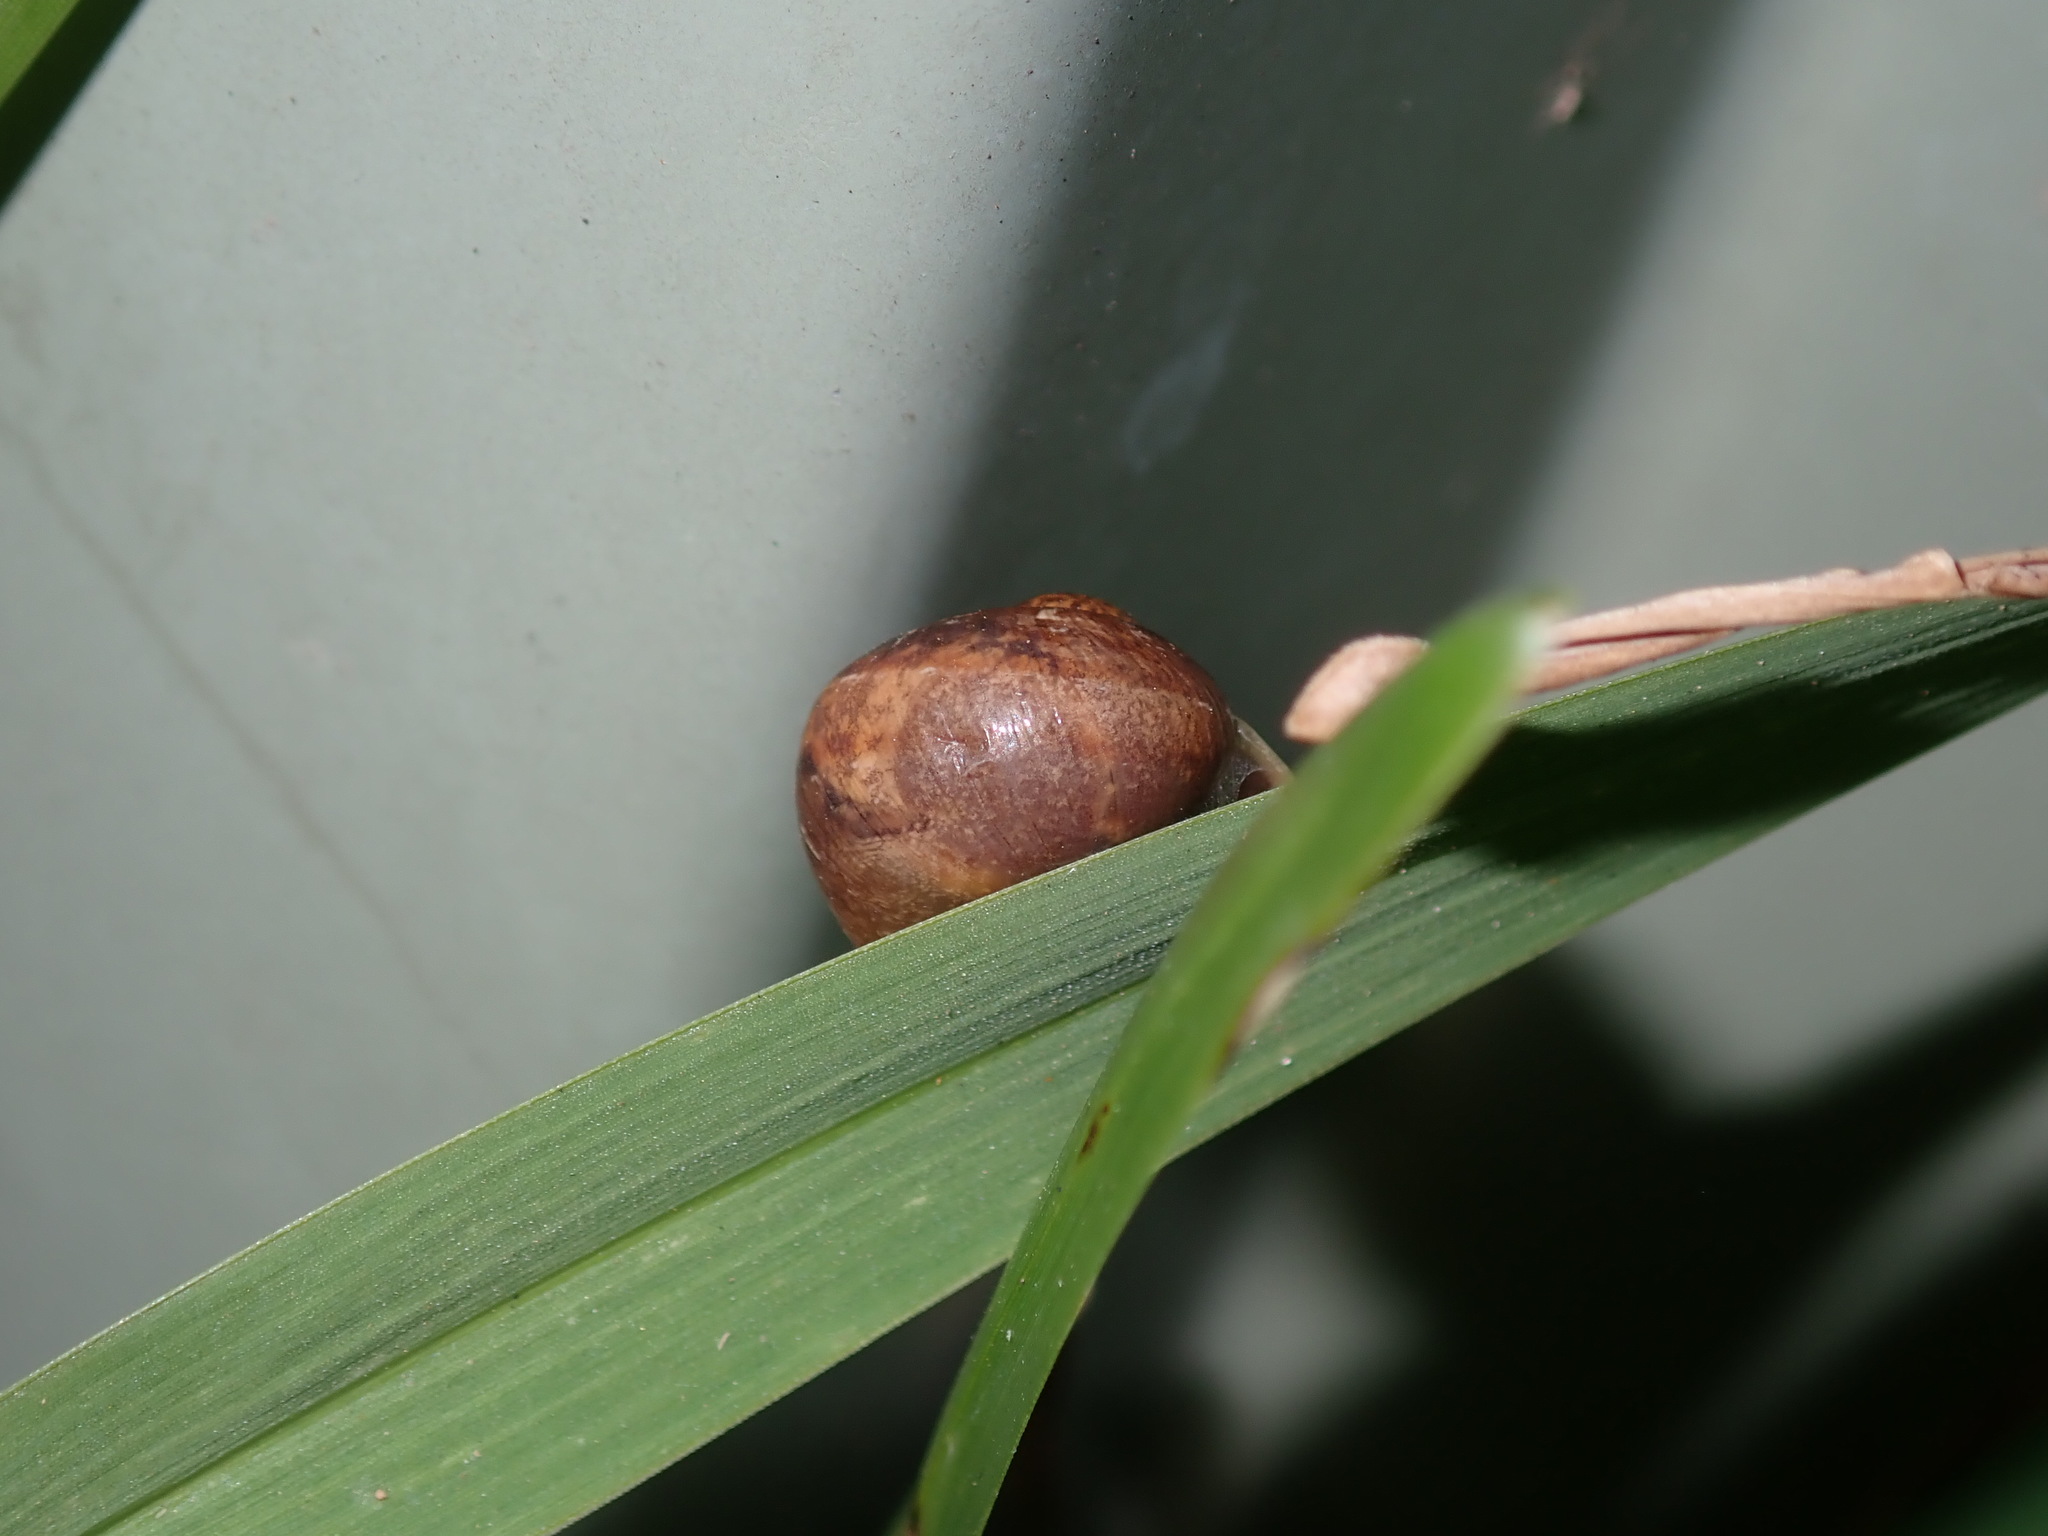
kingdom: Animalia
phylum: Mollusca
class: Gastropoda
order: Stylommatophora
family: Helicidae
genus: Cornu
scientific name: Cornu aspersum
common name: Brown garden snail
